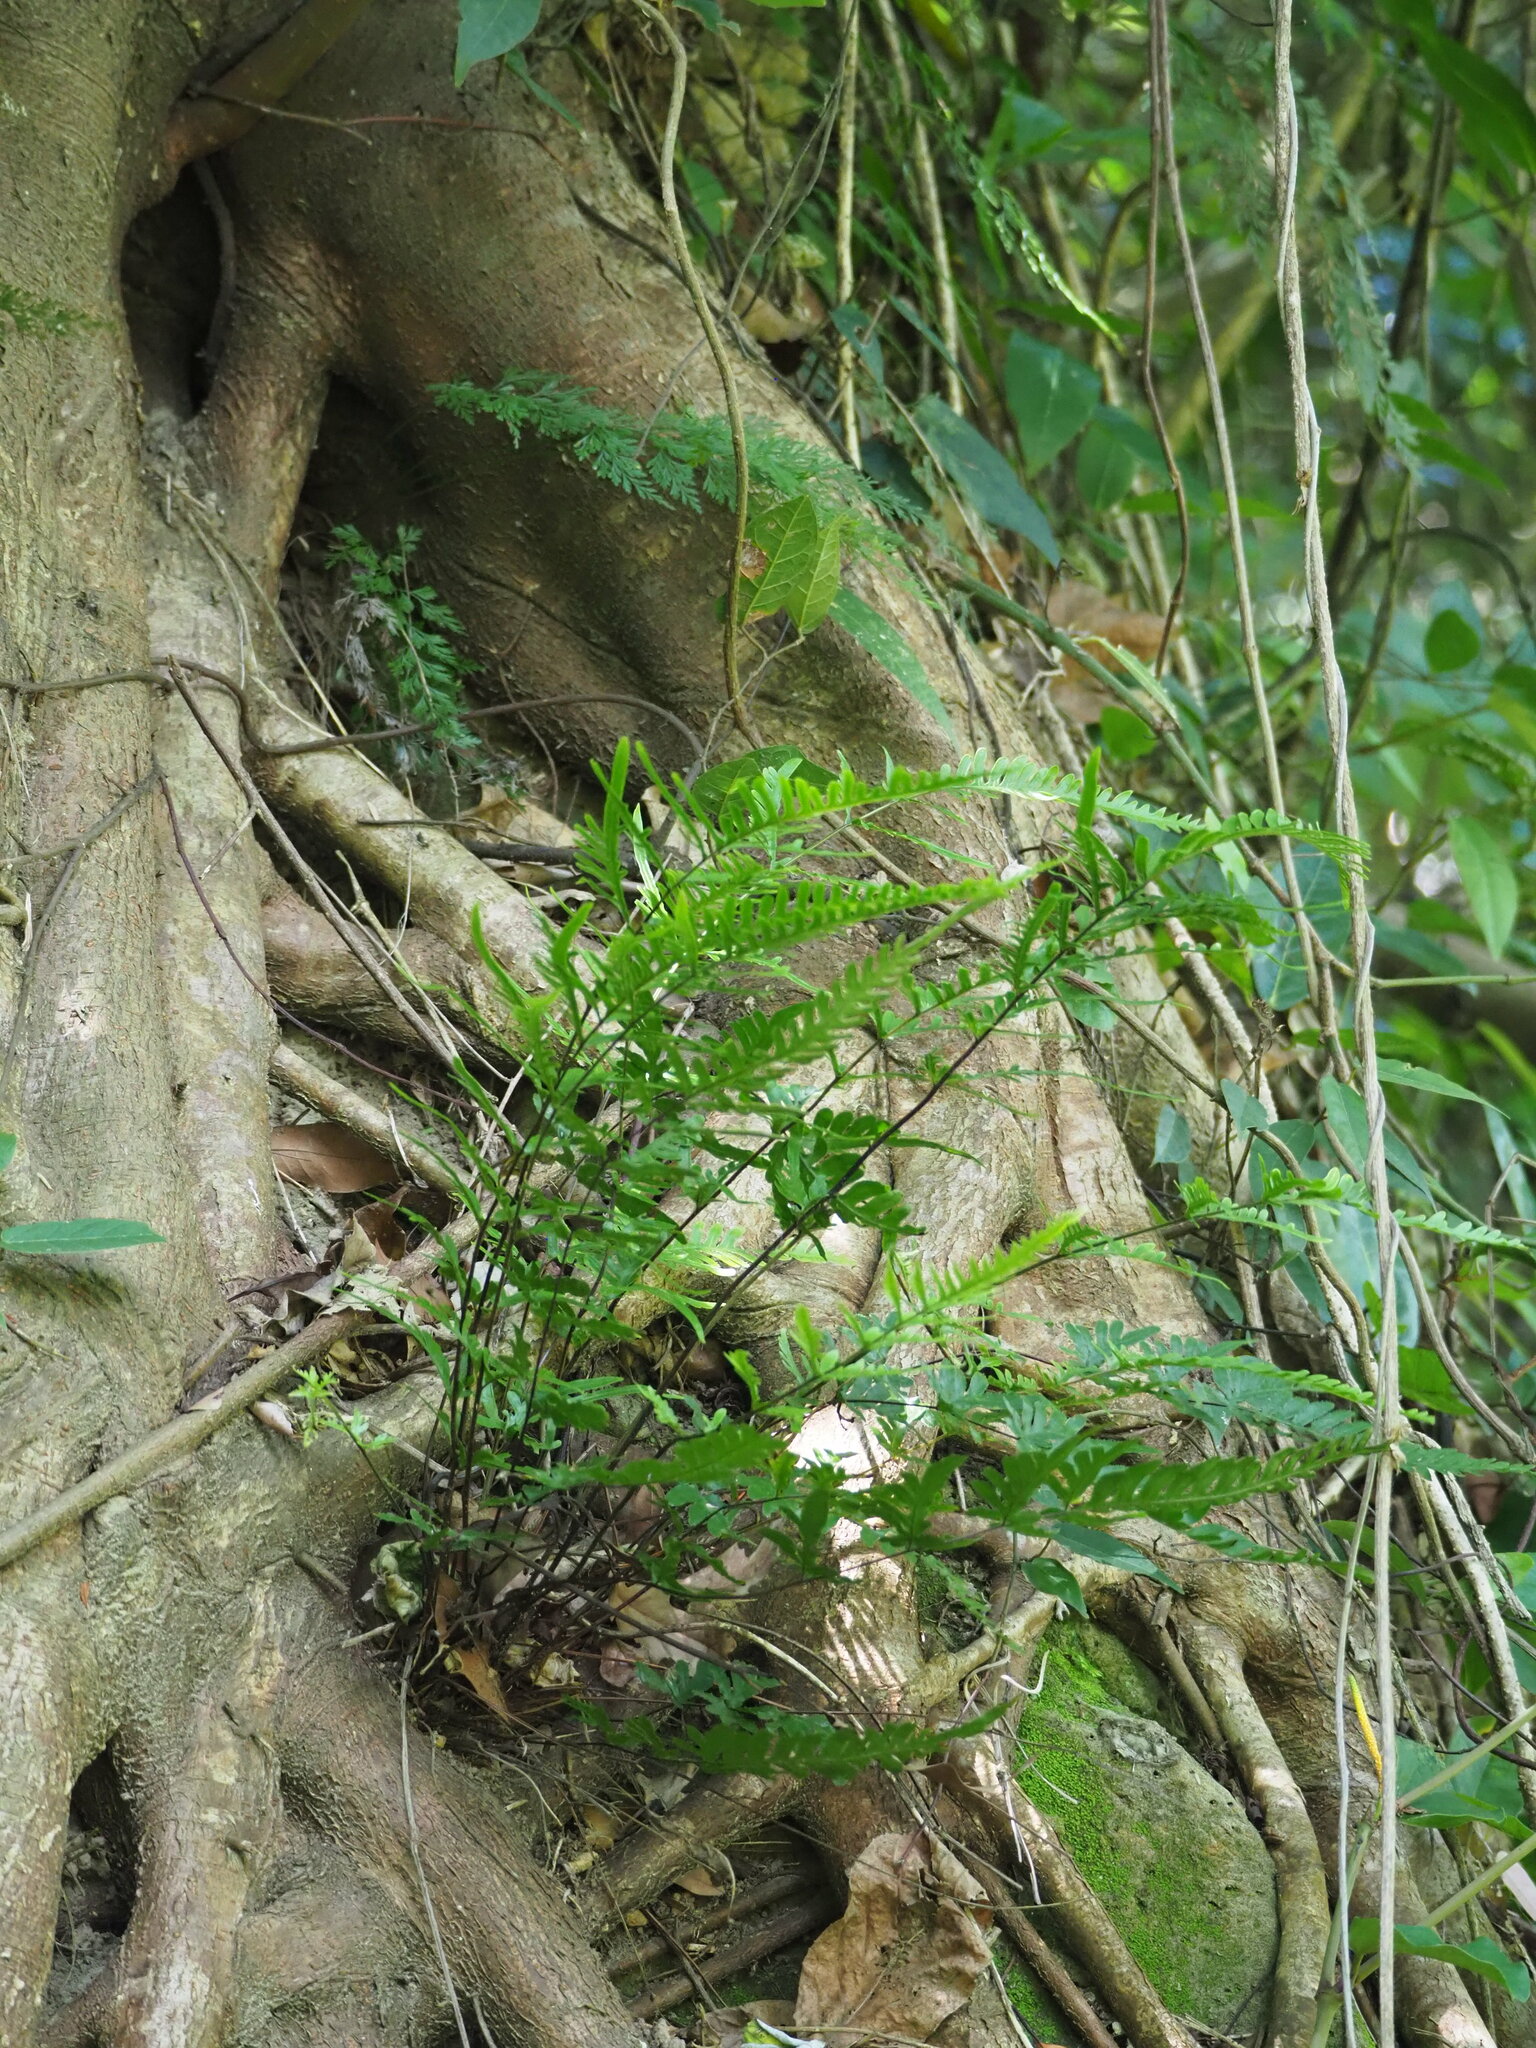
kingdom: Plantae
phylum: Tracheophyta
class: Polypodiopsida
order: Polypodiales
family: Pteridaceae
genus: Pteris
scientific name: Pteris dispar
